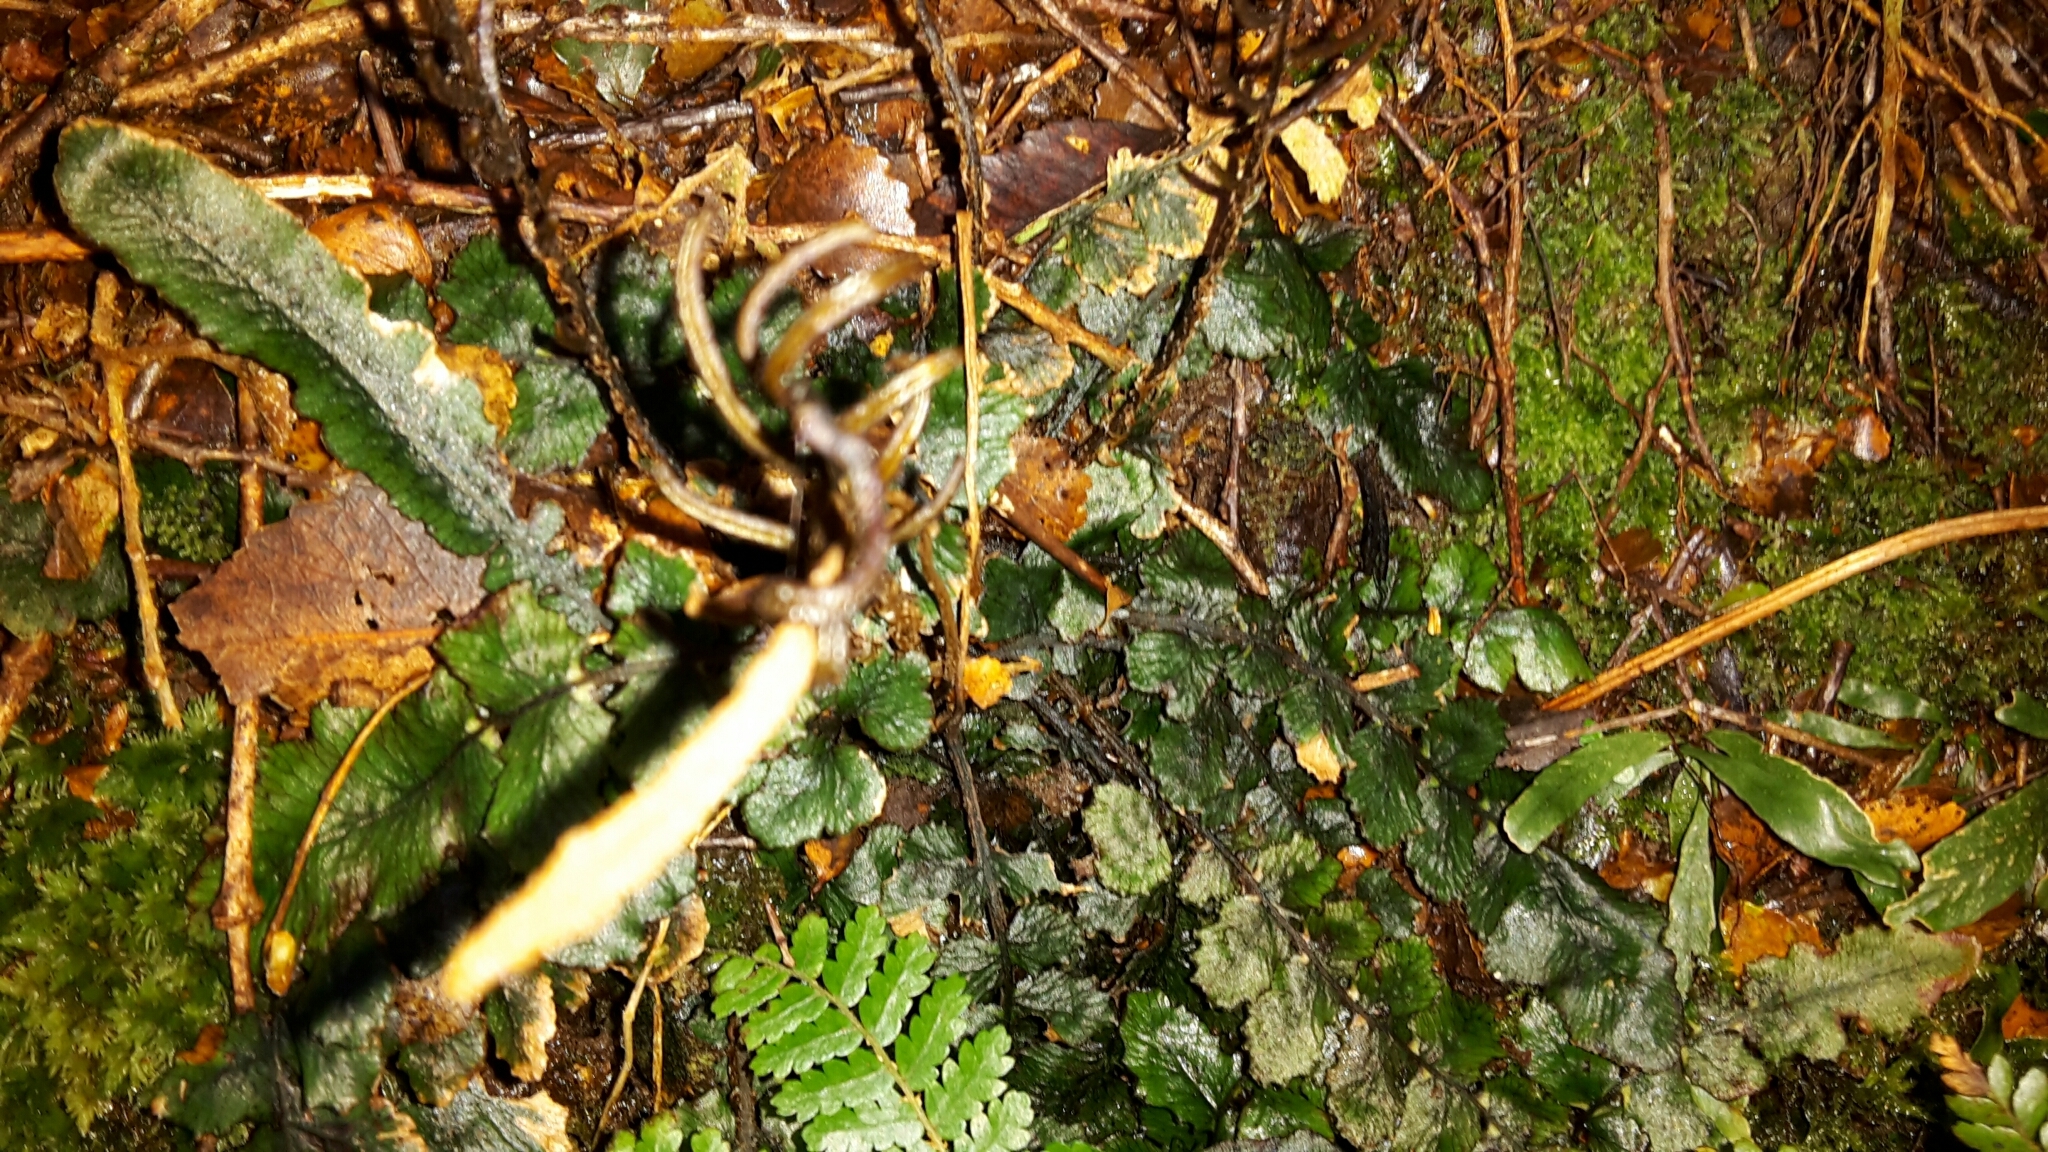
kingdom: Plantae
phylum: Tracheophyta
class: Polypodiopsida
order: Polypodiales
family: Blechnaceae
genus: Cranfillia
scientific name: Cranfillia nigra
